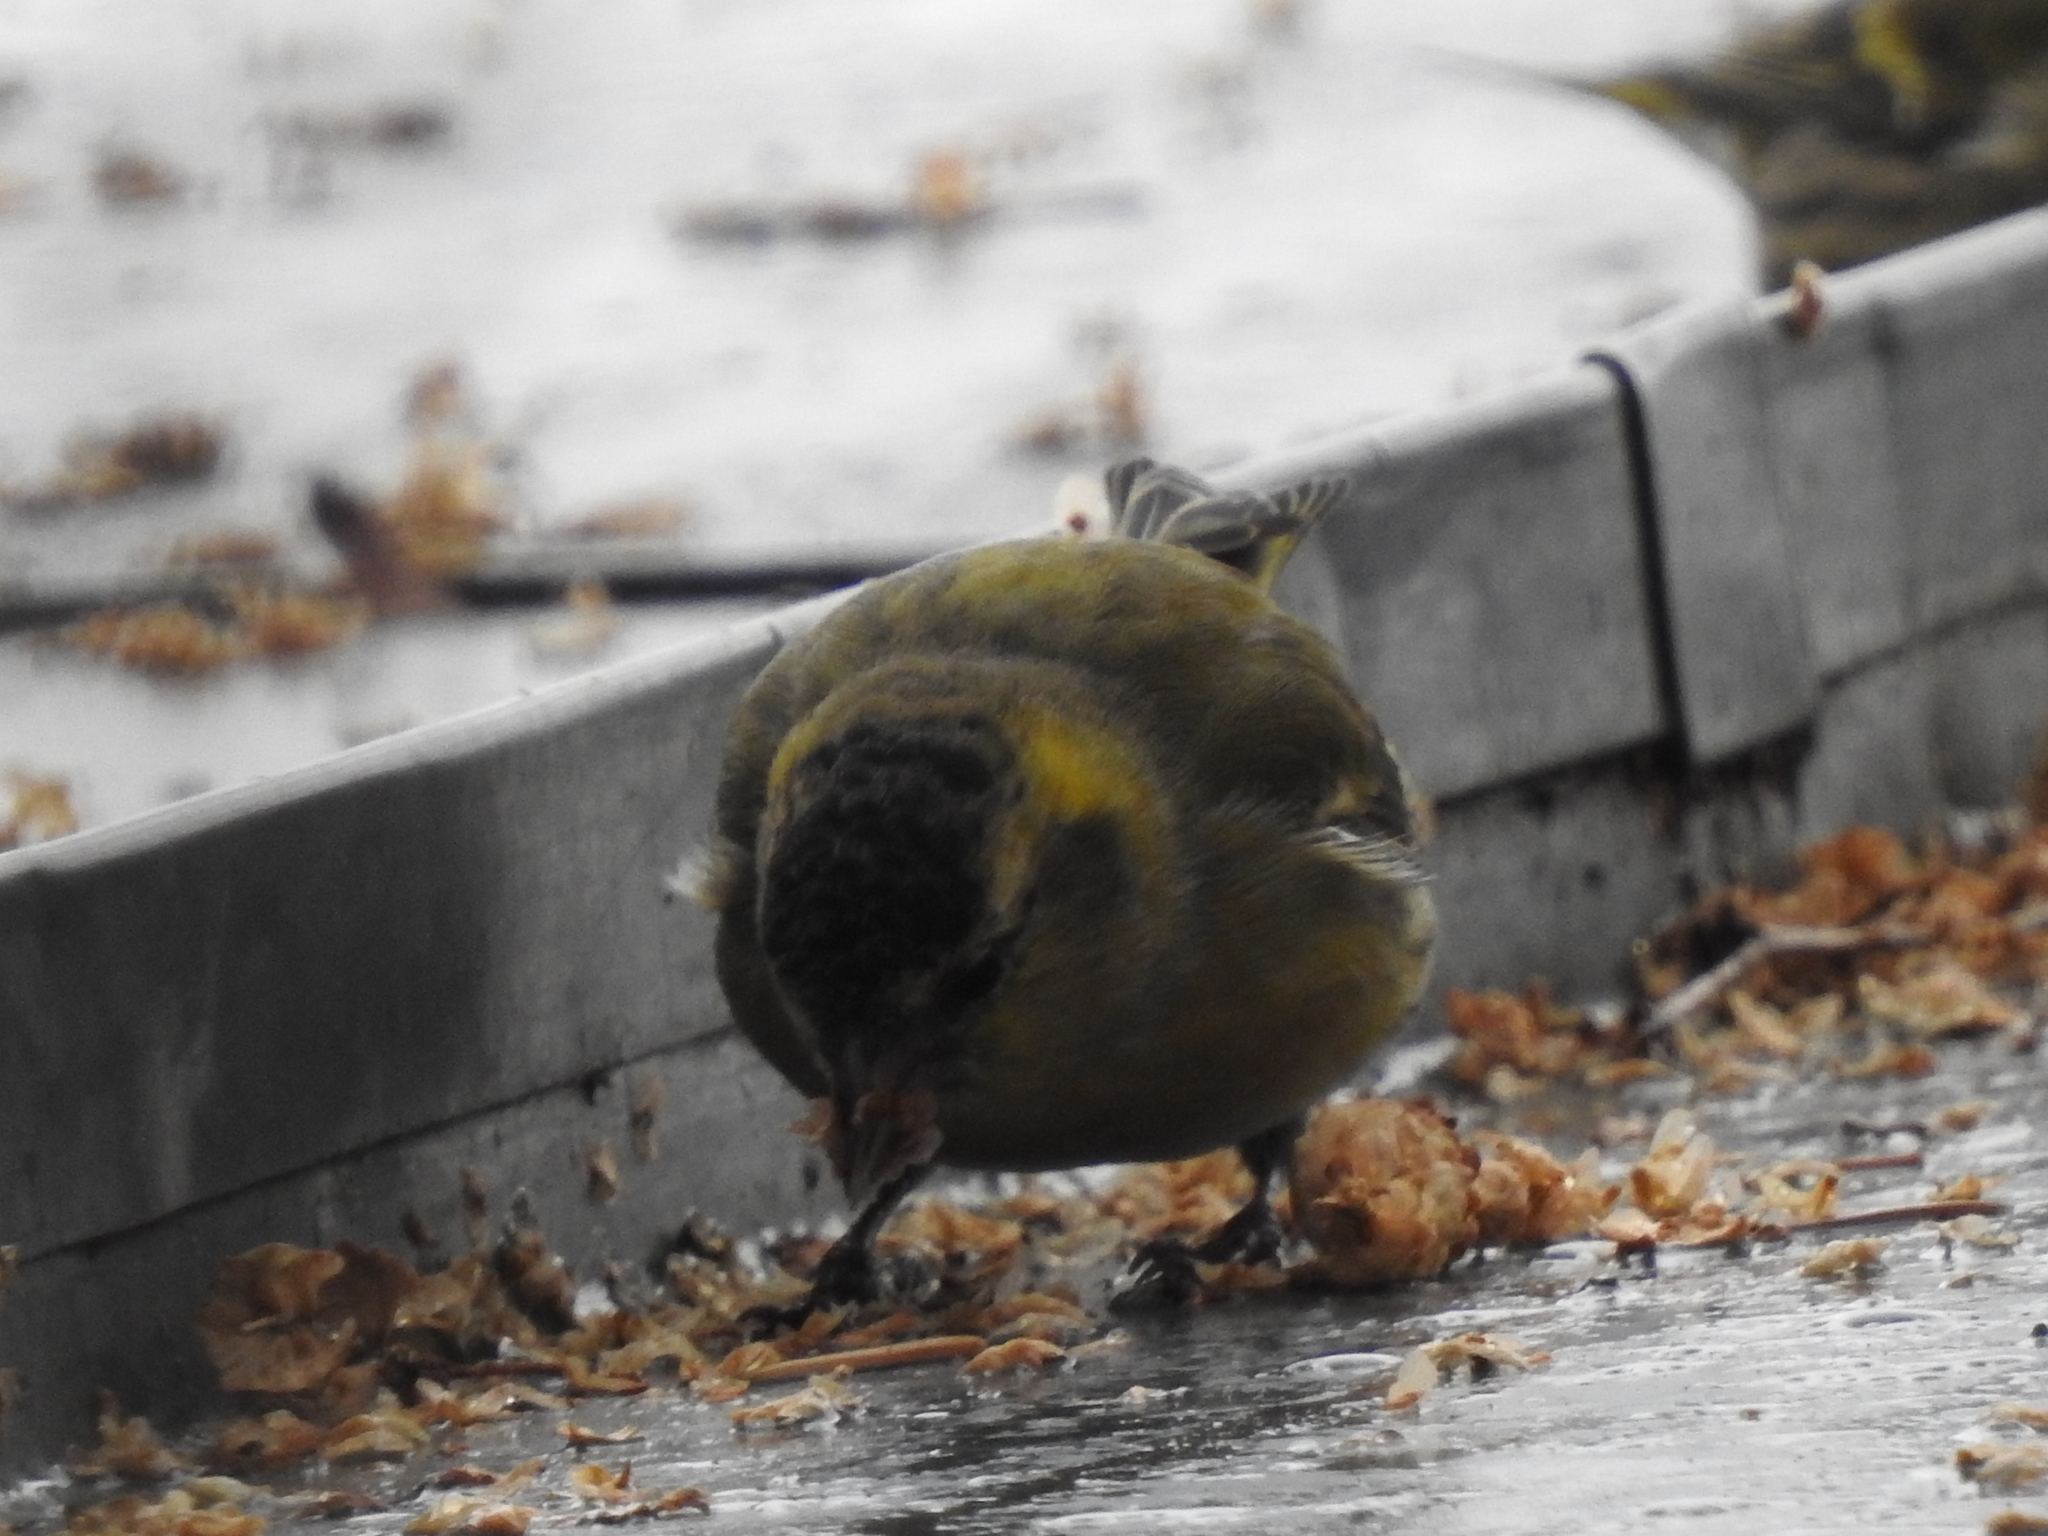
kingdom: Animalia
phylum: Chordata
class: Aves
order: Passeriformes
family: Fringillidae
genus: Spinus
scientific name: Spinus spinus
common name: Eurasian siskin
